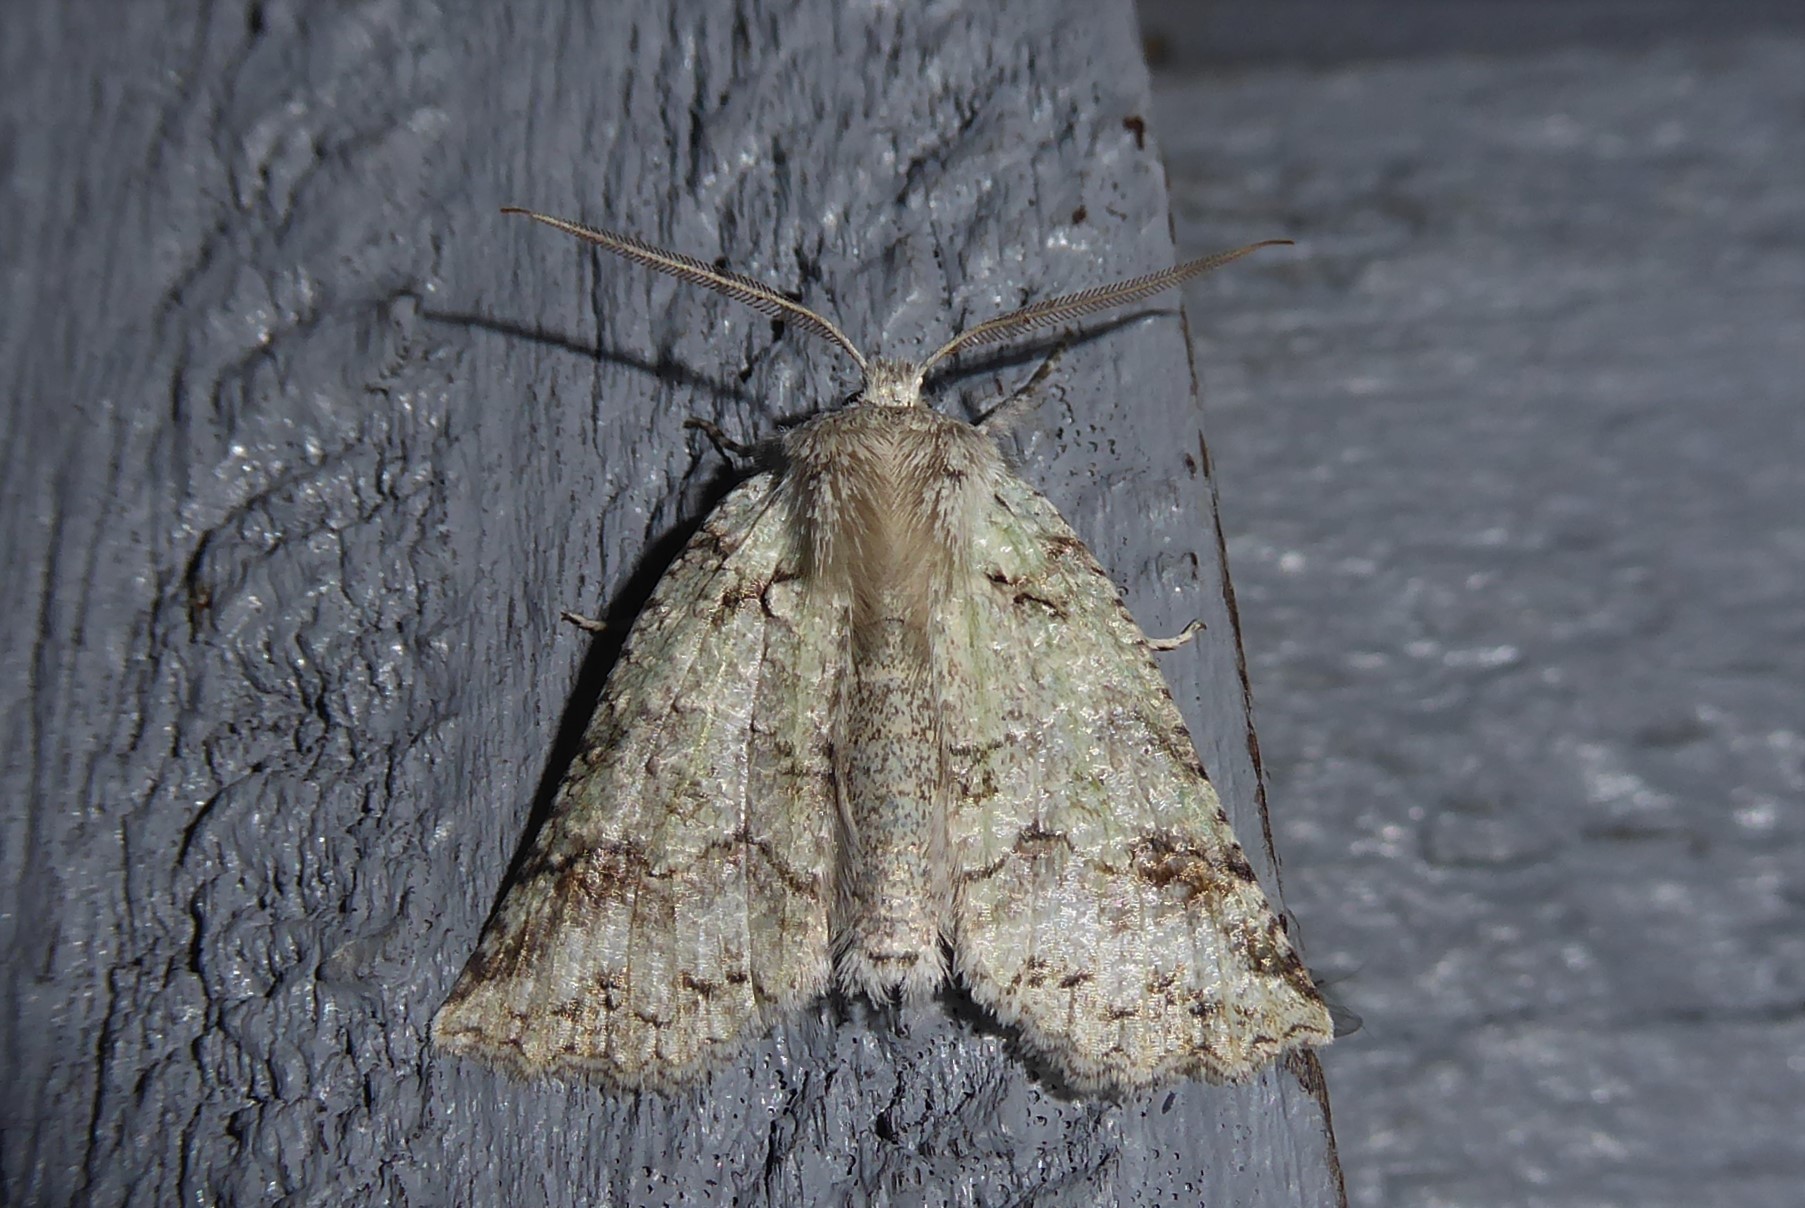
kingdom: Animalia
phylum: Arthropoda
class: Insecta
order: Lepidoptera
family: Geometridae
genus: Declana
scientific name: Declana floccosa
